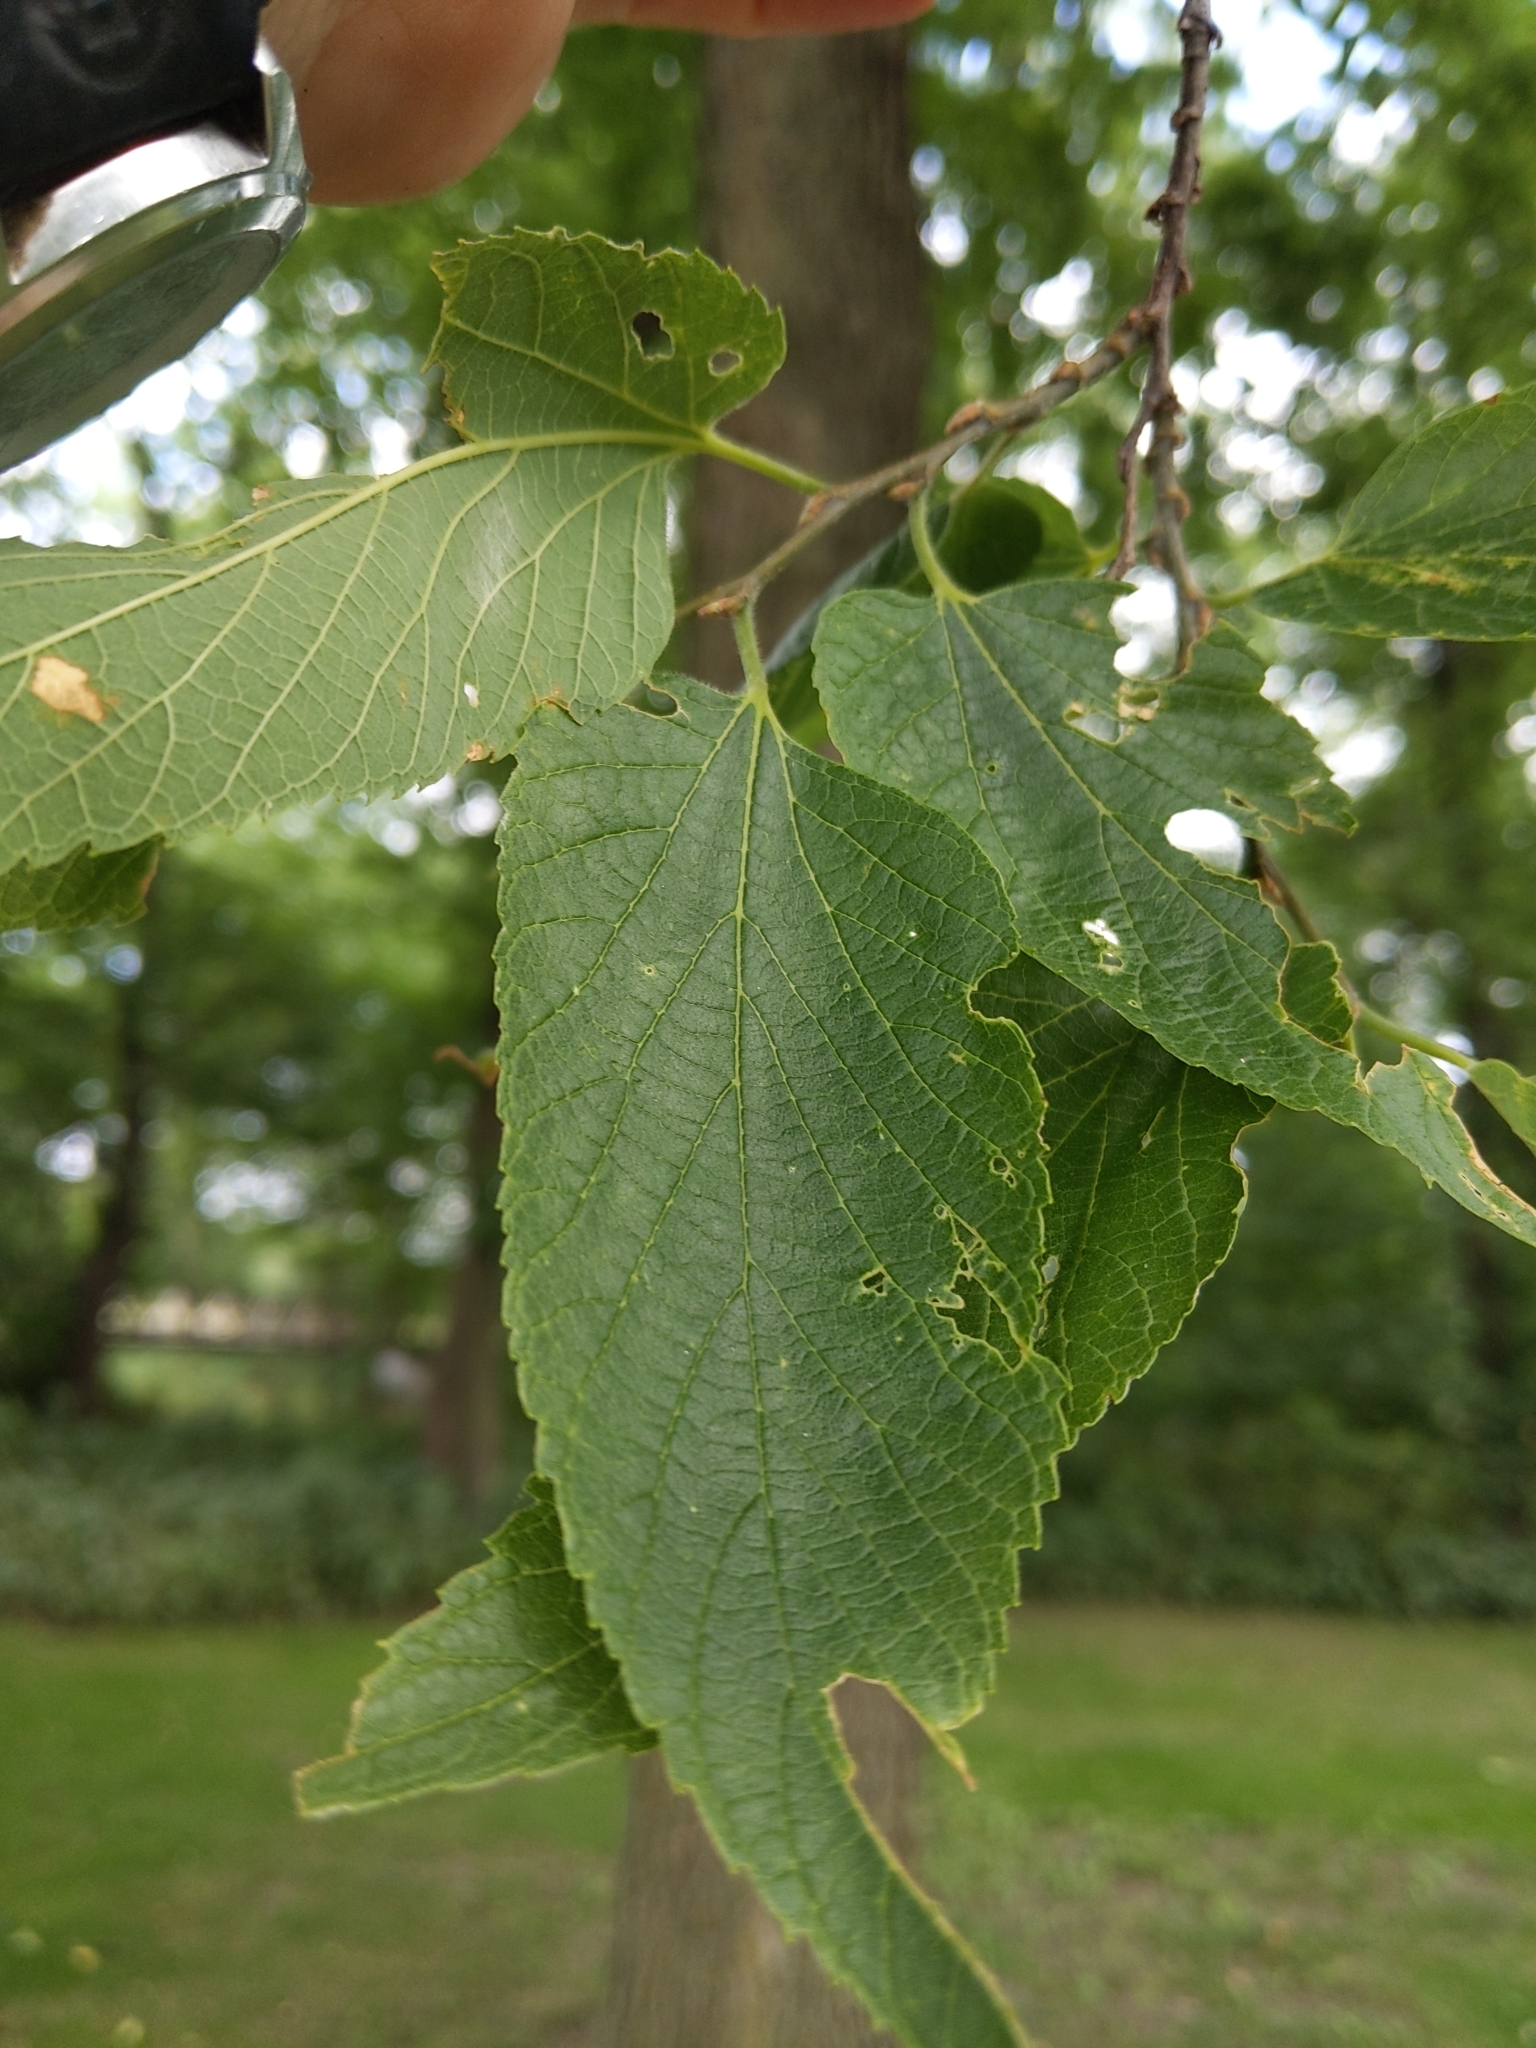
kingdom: Plantae
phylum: Tracheophyta
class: Magnoliopsida
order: Rosales
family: Cannabaceae
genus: Celtis
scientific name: Celtis occidentalis
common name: Common hackberry
